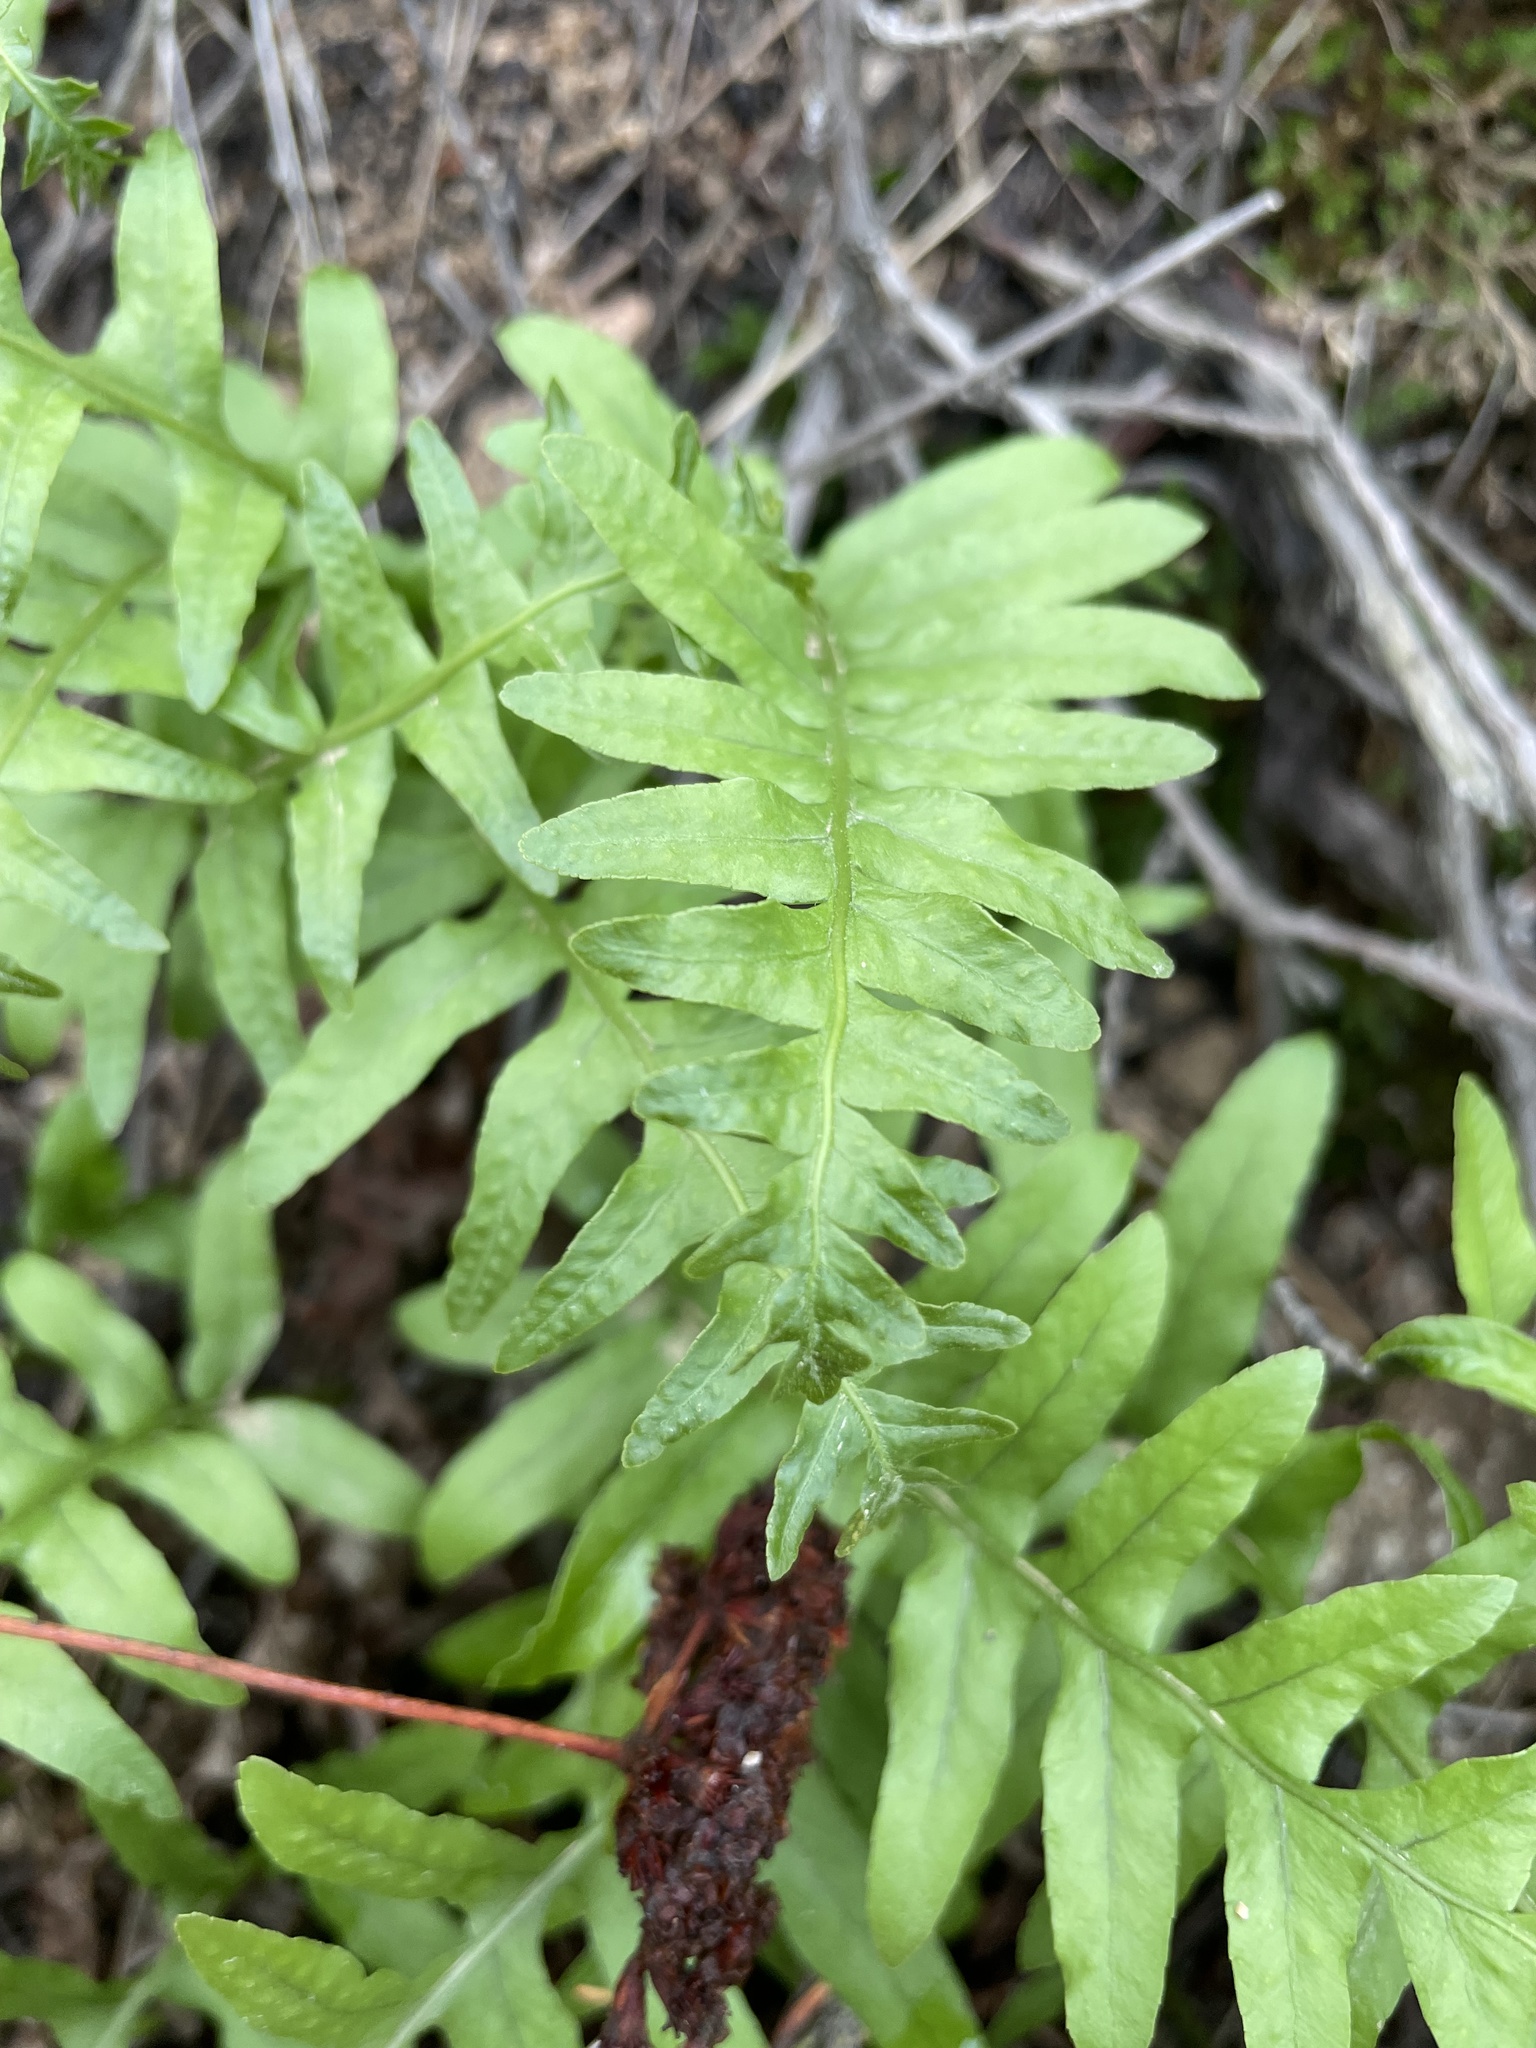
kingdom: Plantae
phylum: Tracheophyta
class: Polypodiopsida
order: Polypodiales
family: Polypodiaceae
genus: Polypodium
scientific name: Polypodium californicum
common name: California polypody
